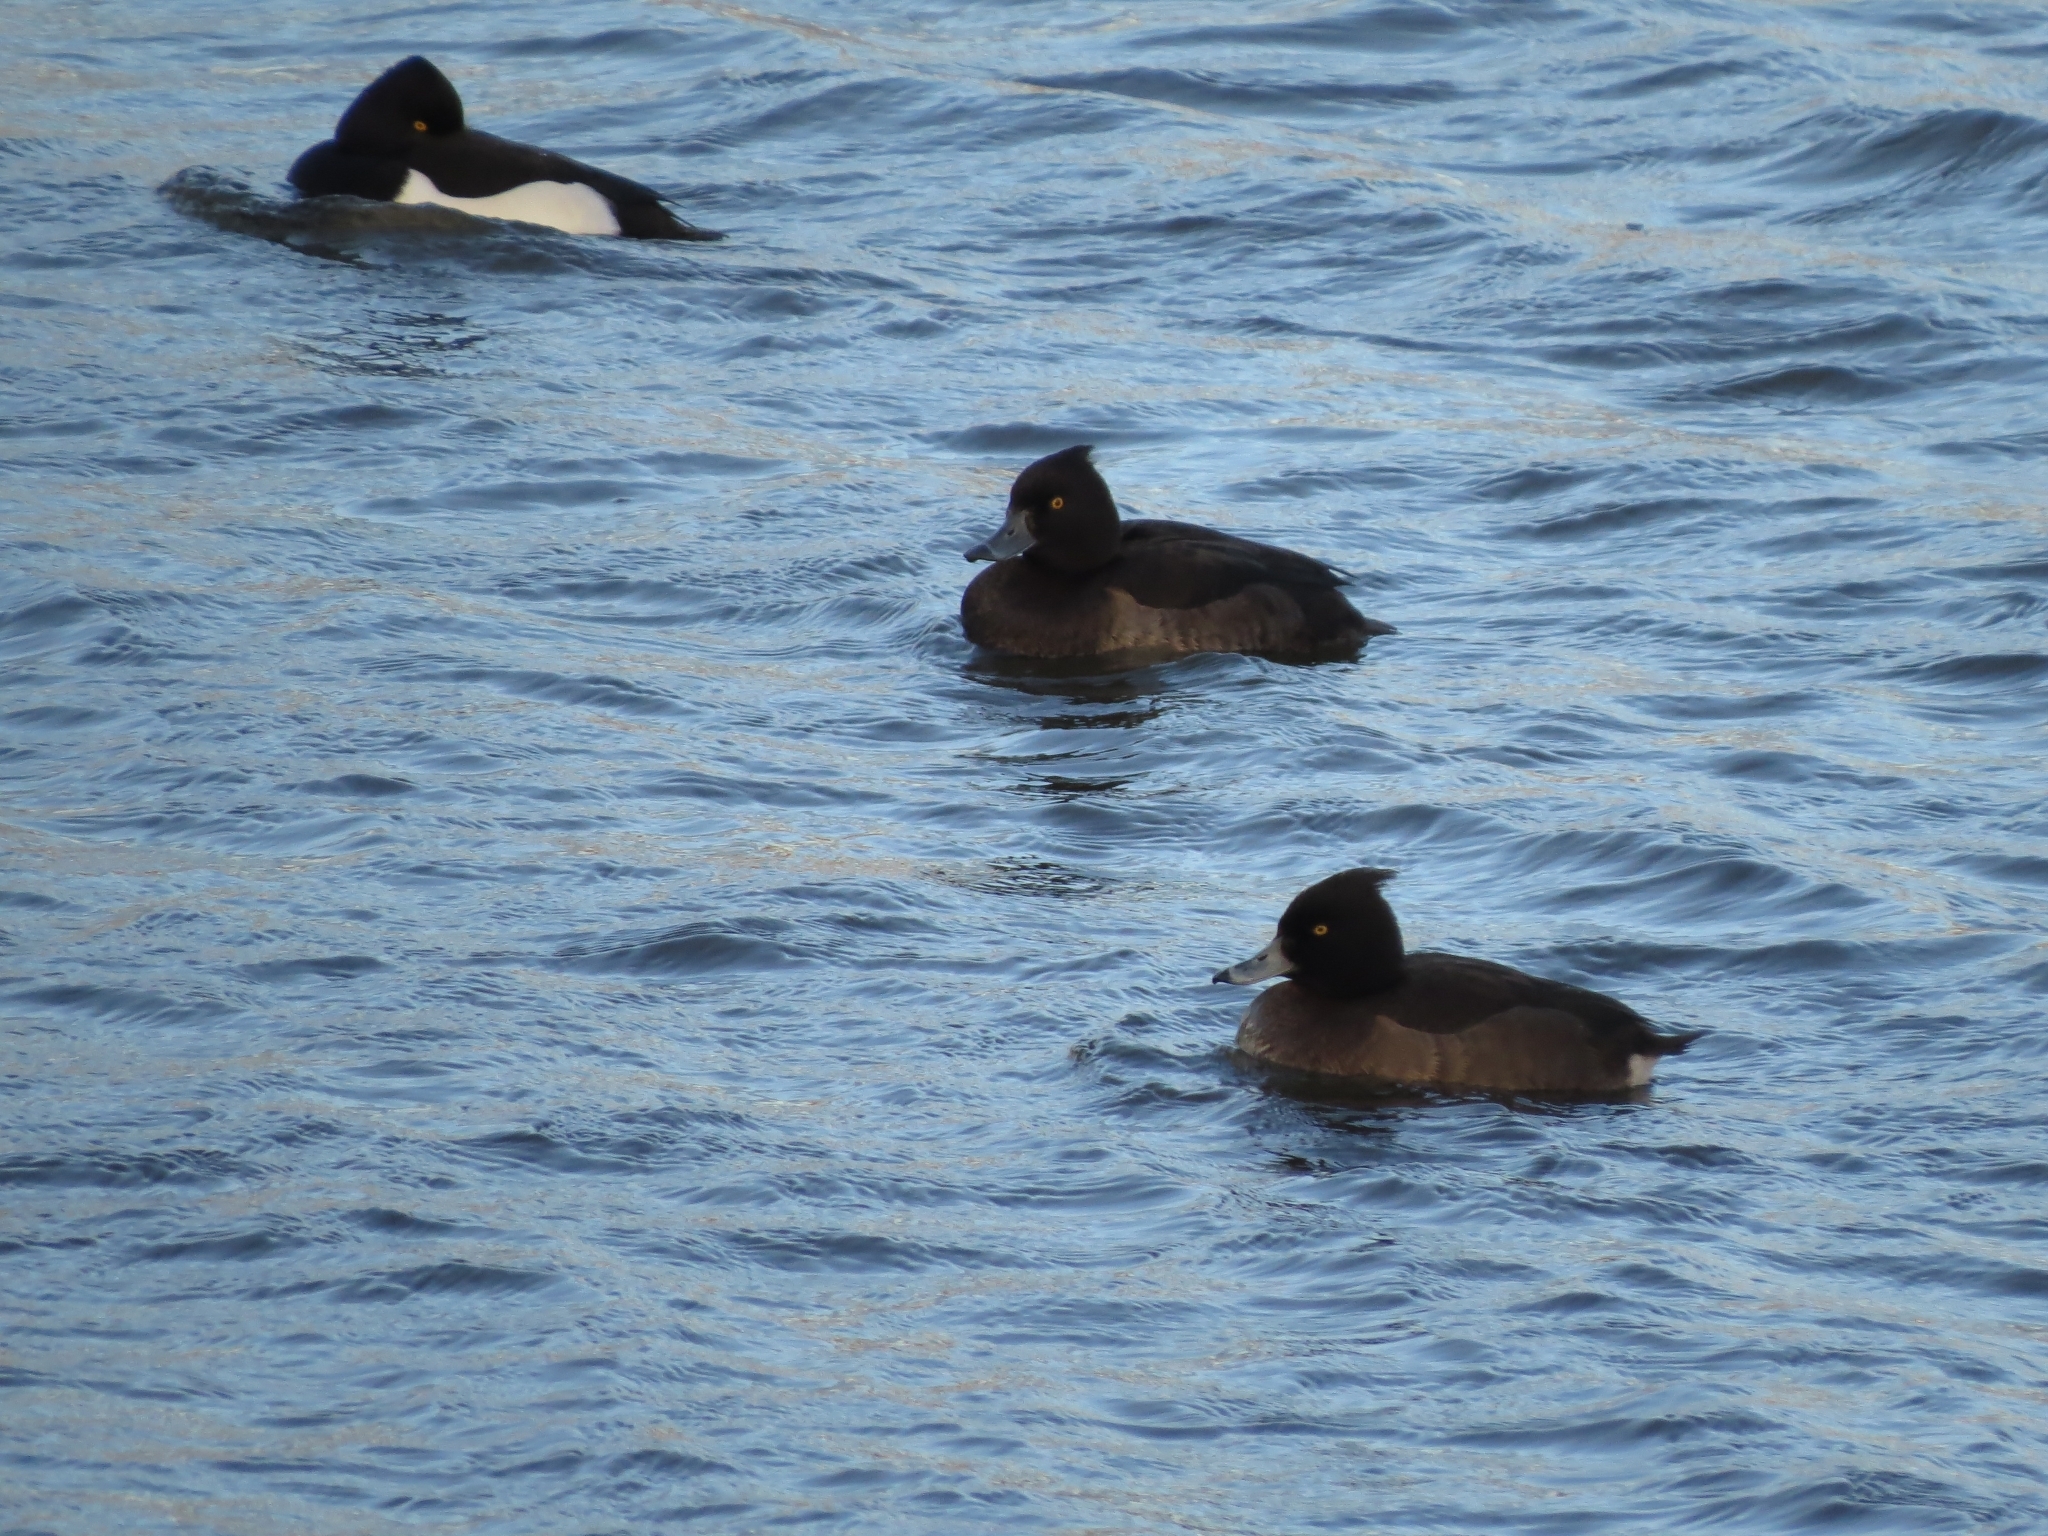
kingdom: Animalia
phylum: Chordata
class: Aves
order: Anseriformes
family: Anatidae
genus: Aythya
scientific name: Aythya fuligula
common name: Tufted duck
